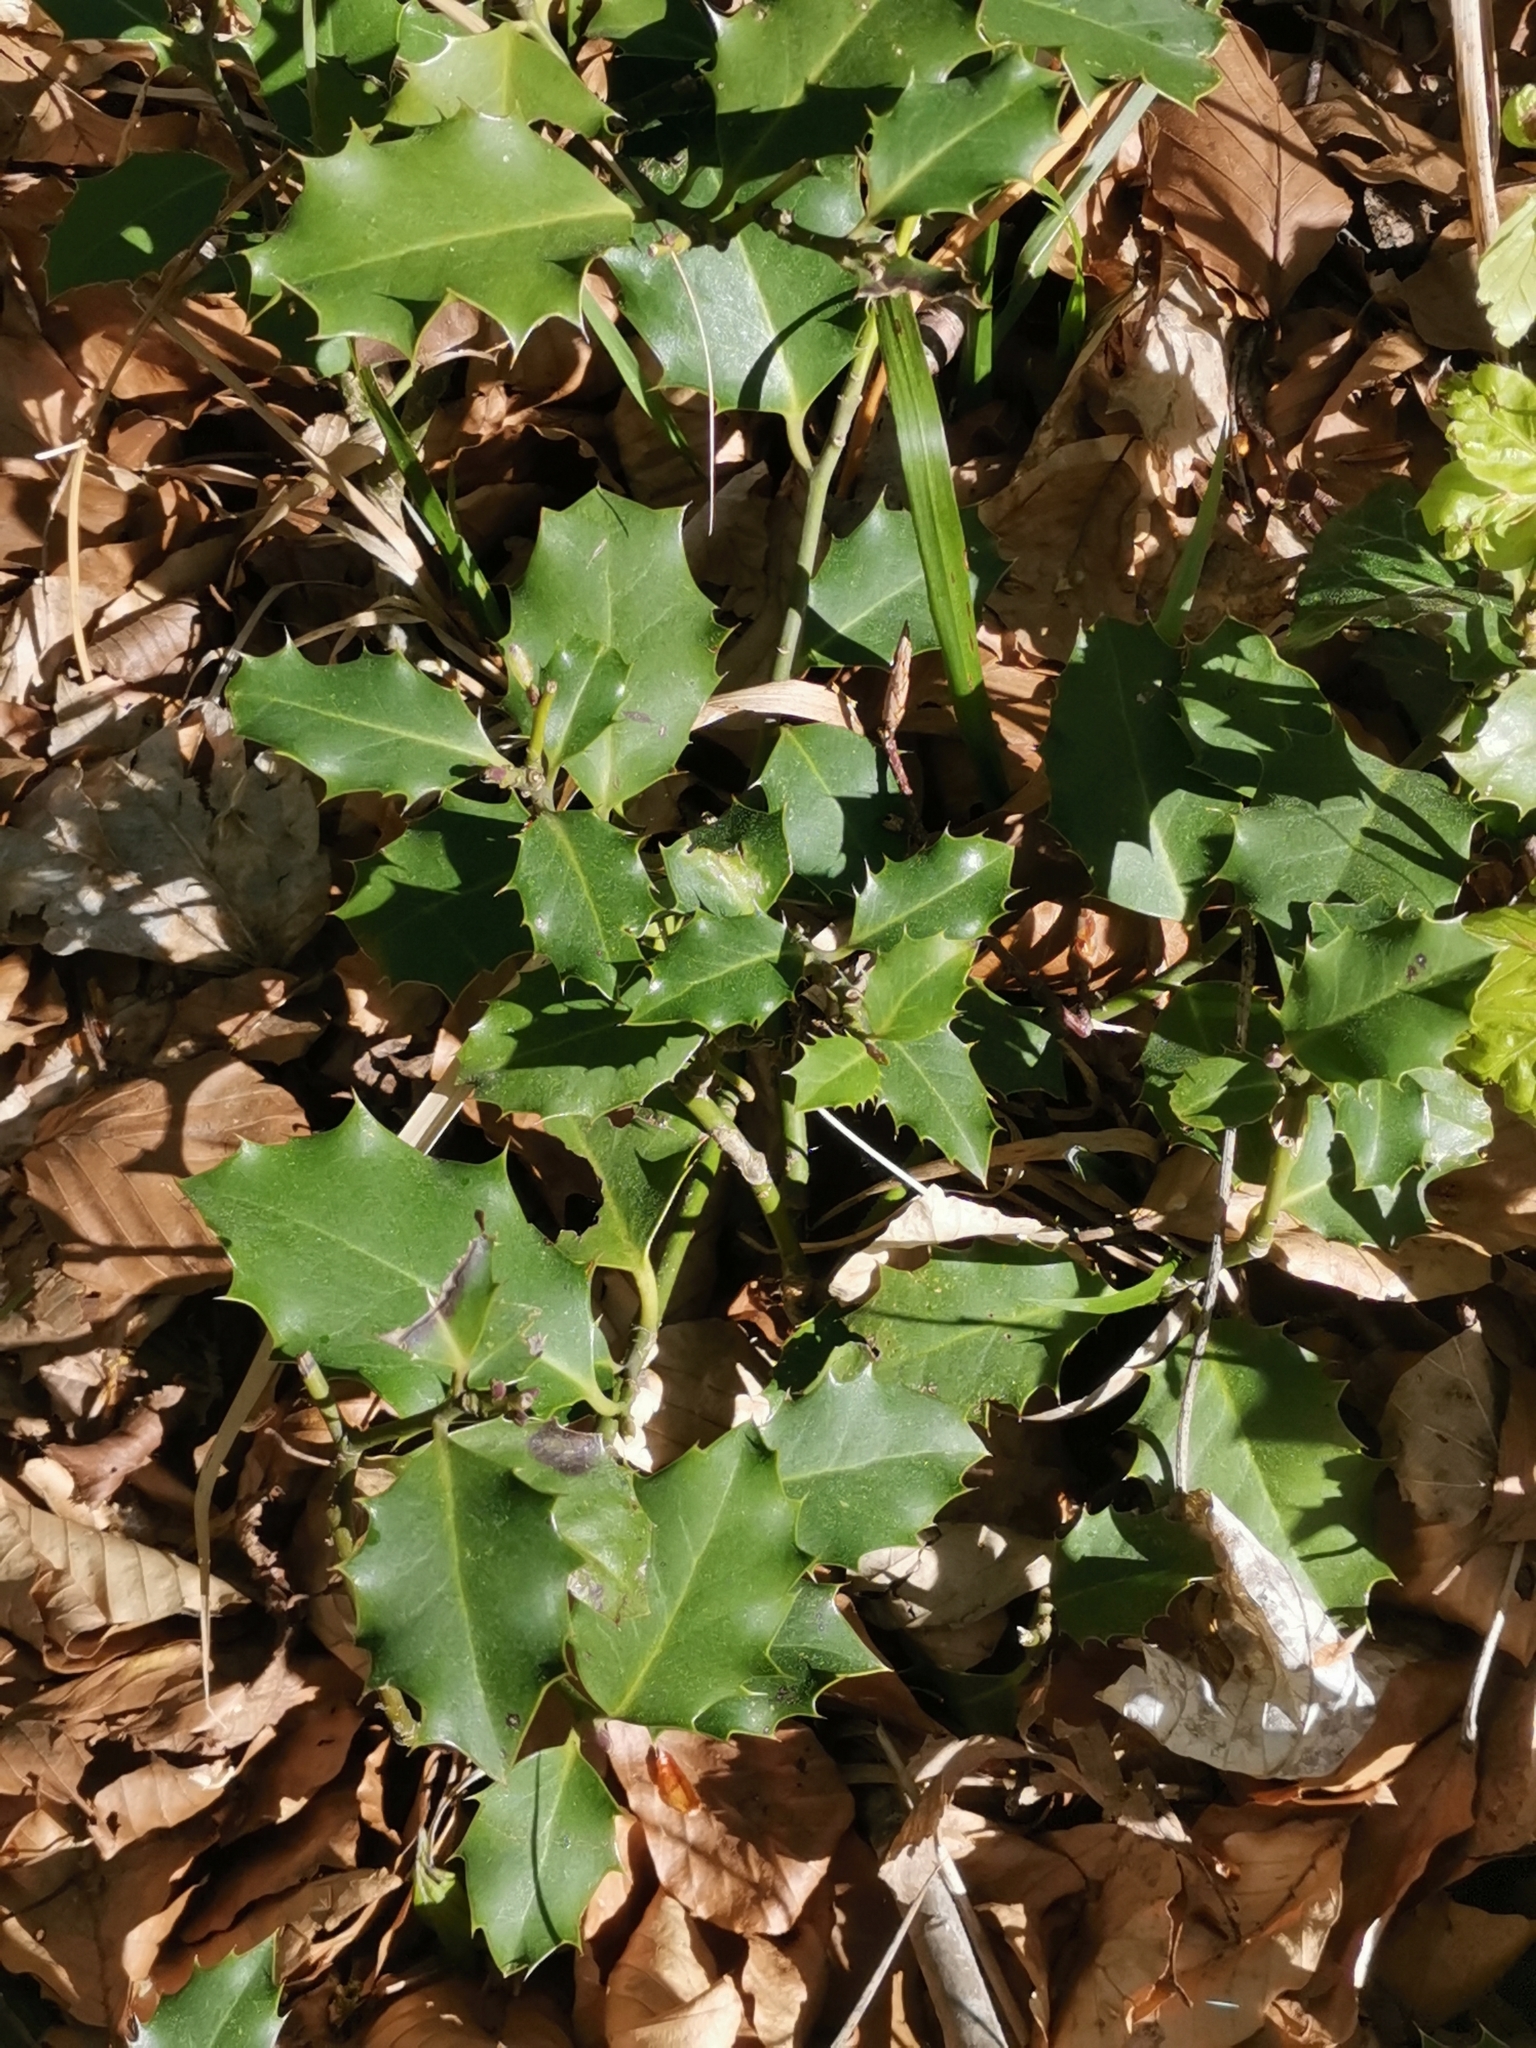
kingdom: Plantae
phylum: Tracheophyta
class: Magnoliopsida
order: Aquifoliales
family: Aquifoliaceae
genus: Ilex
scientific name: Ilex aquifolium
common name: English holly
